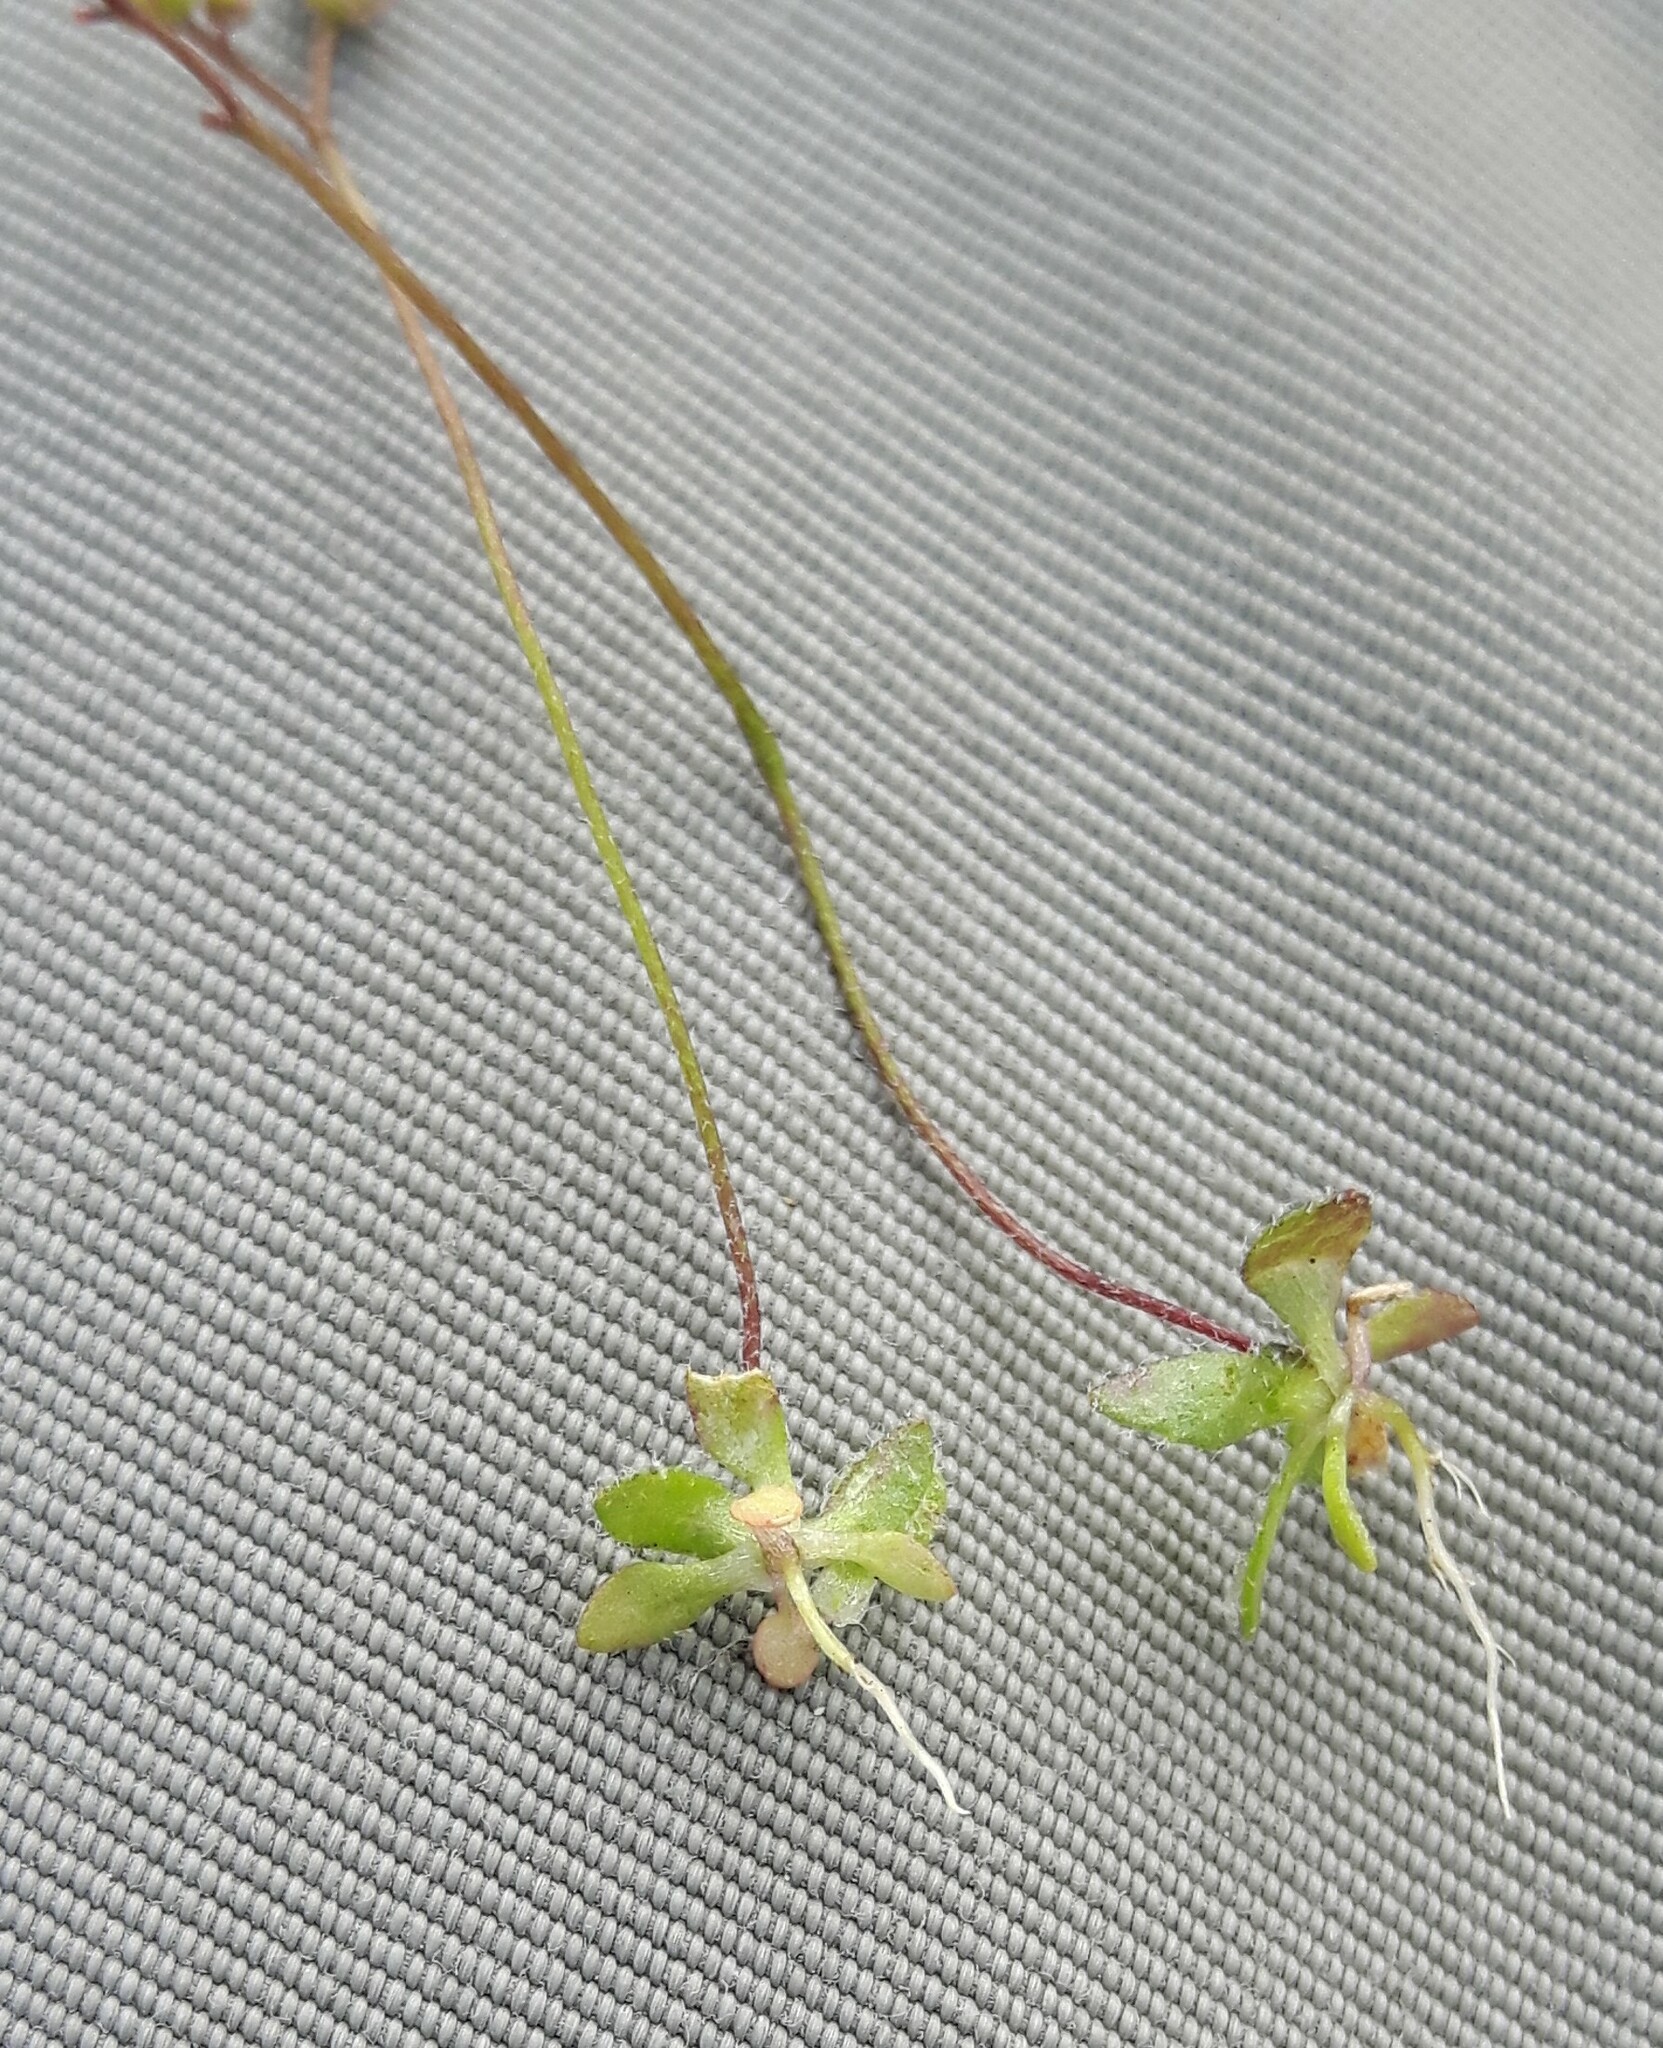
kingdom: Plantae
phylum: Tracheophyta
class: Magnoliopsida
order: Brassicales
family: Brassicaceae
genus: Draba
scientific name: Draba verna
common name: Spring draba
